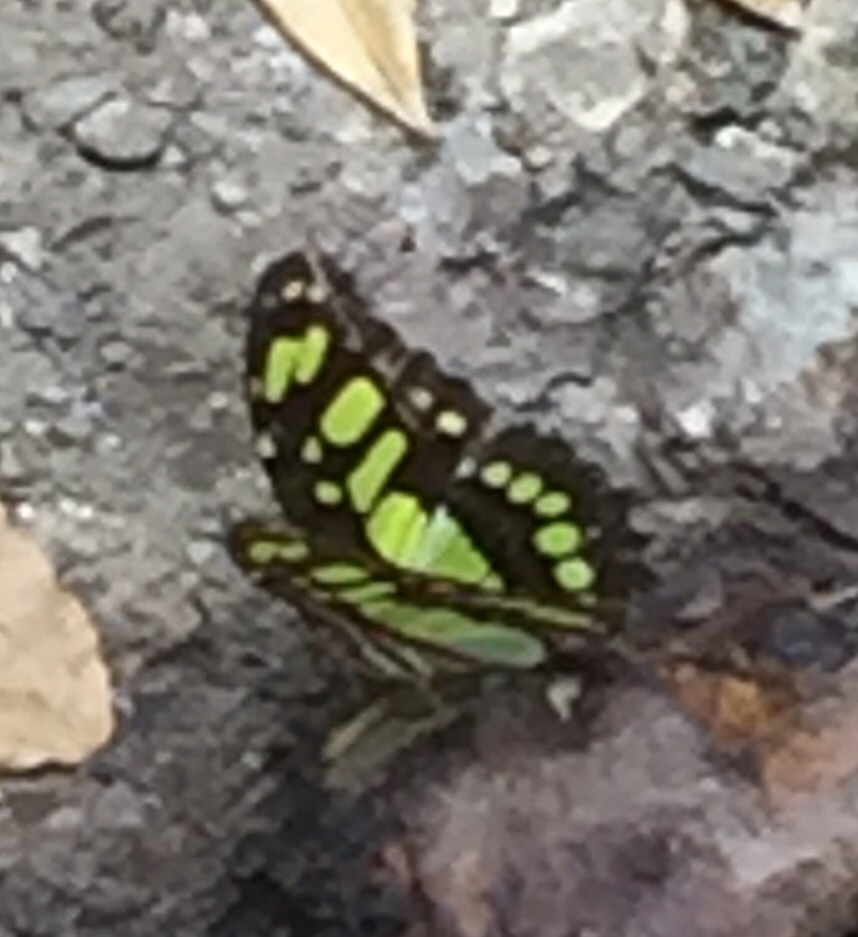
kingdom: Animalia
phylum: Arthropoda
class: Insecta
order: Lepidoptera
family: Nymphalidae
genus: Siproeta
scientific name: Siproeta stelenes
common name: Malachite
